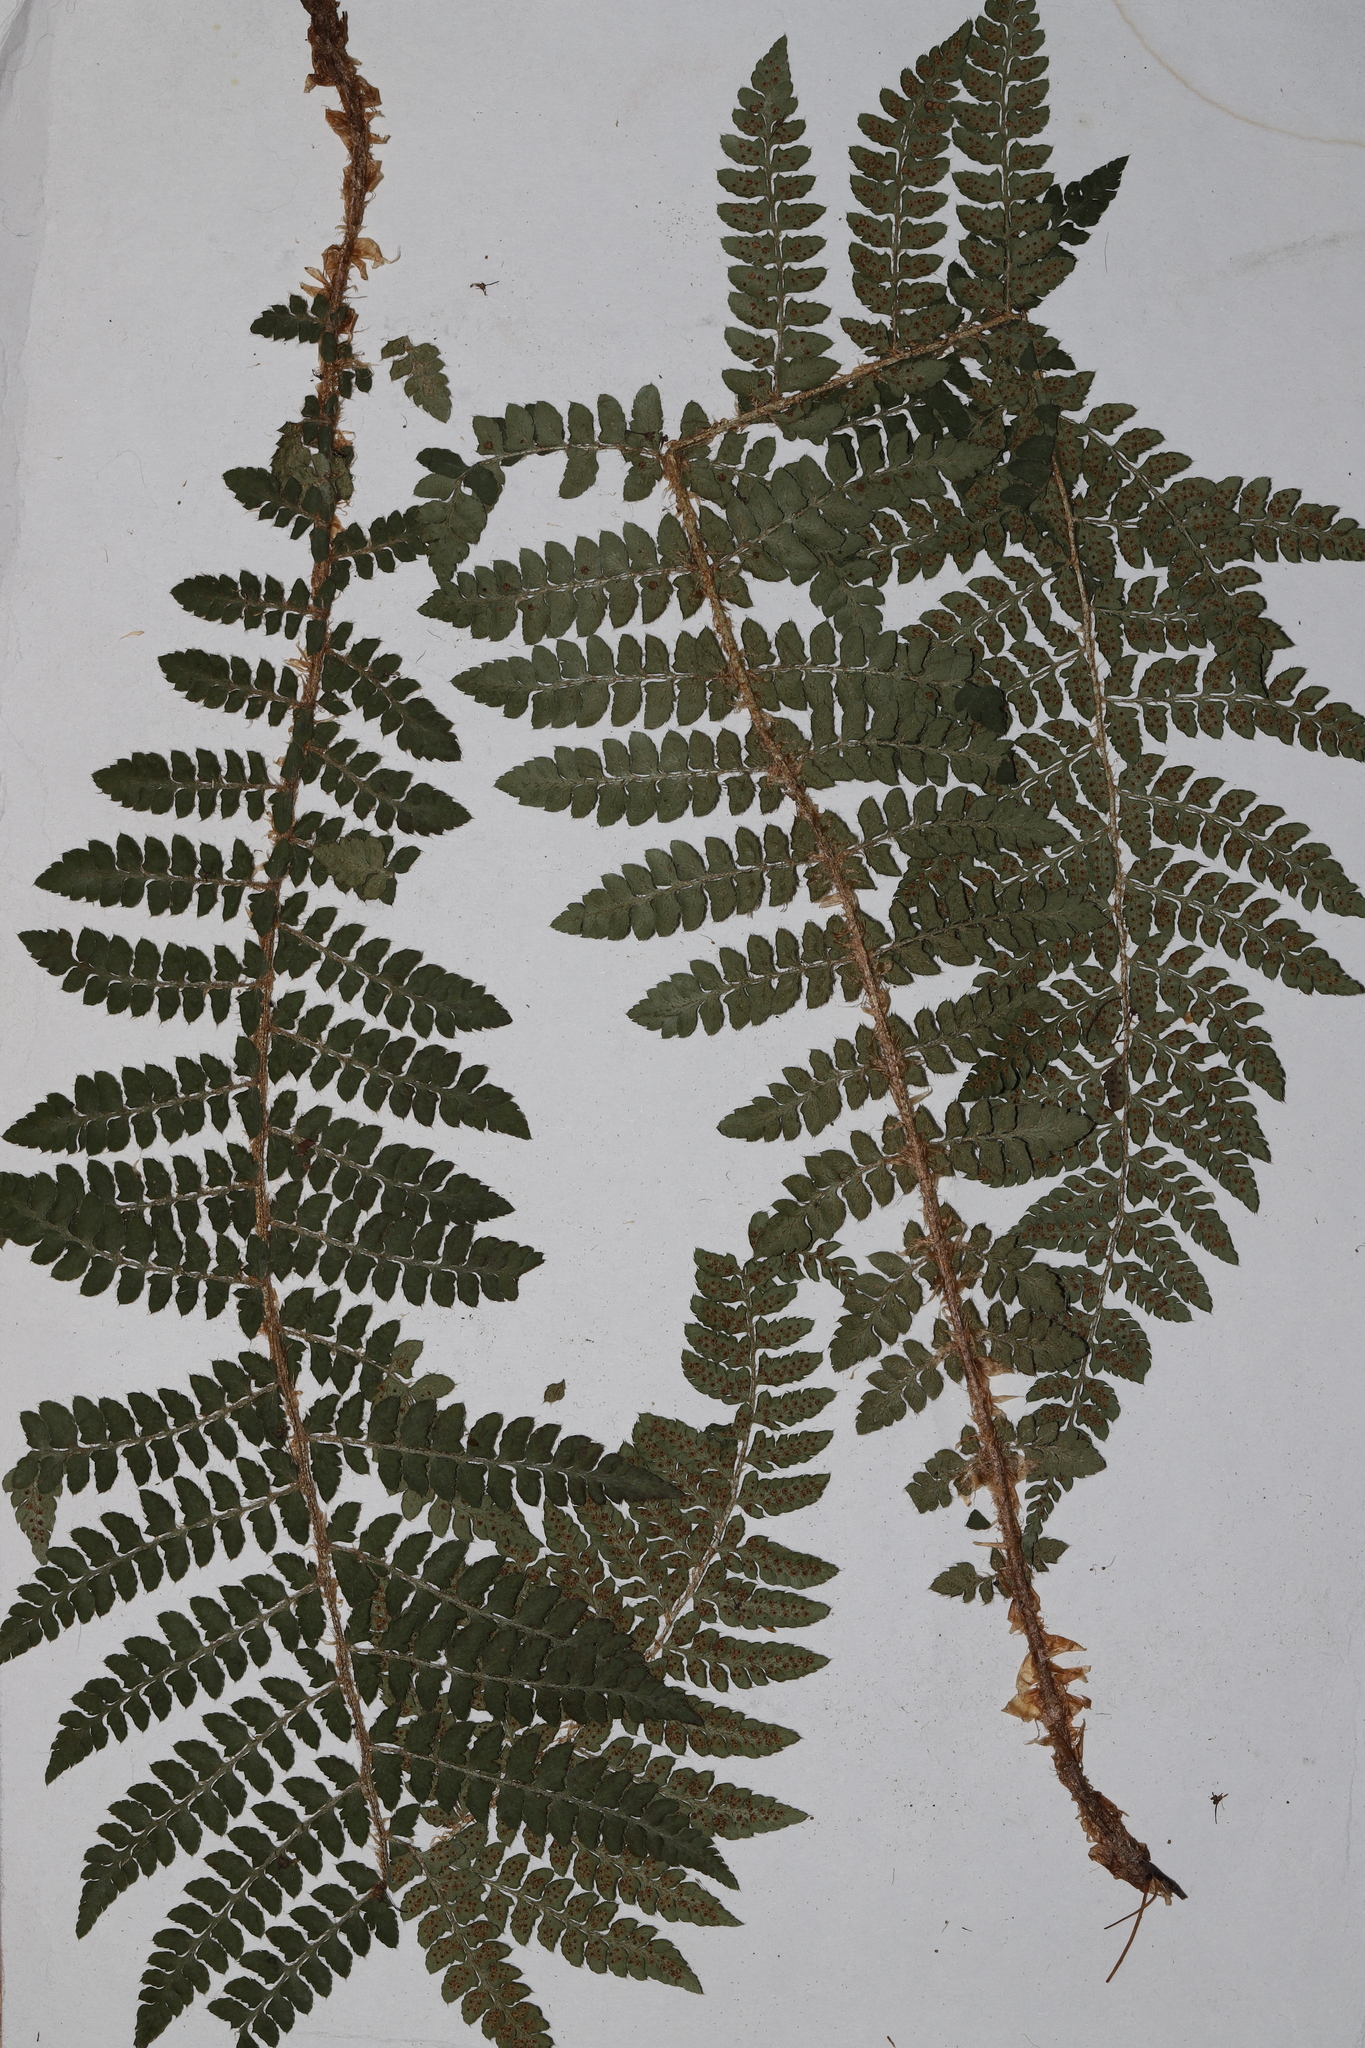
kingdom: Plantae
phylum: Tracheophyta
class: Polypodiopsida
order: Polypodiales
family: Dryopteridaceae
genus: Polystichum
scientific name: Polystichum braunii
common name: Braun's holly fern
